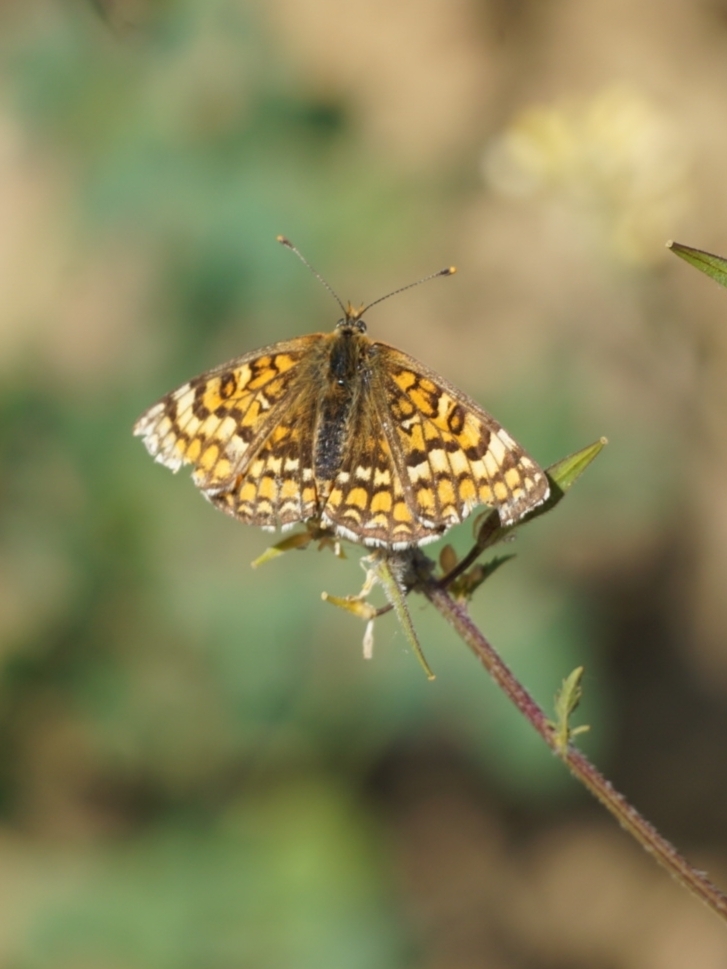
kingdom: Animalia
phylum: Arthropoda
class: Insecta
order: Lepidoptera
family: Nymphalidae
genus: Melitaea
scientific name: Melitaea deione
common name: Provençal fritillary
